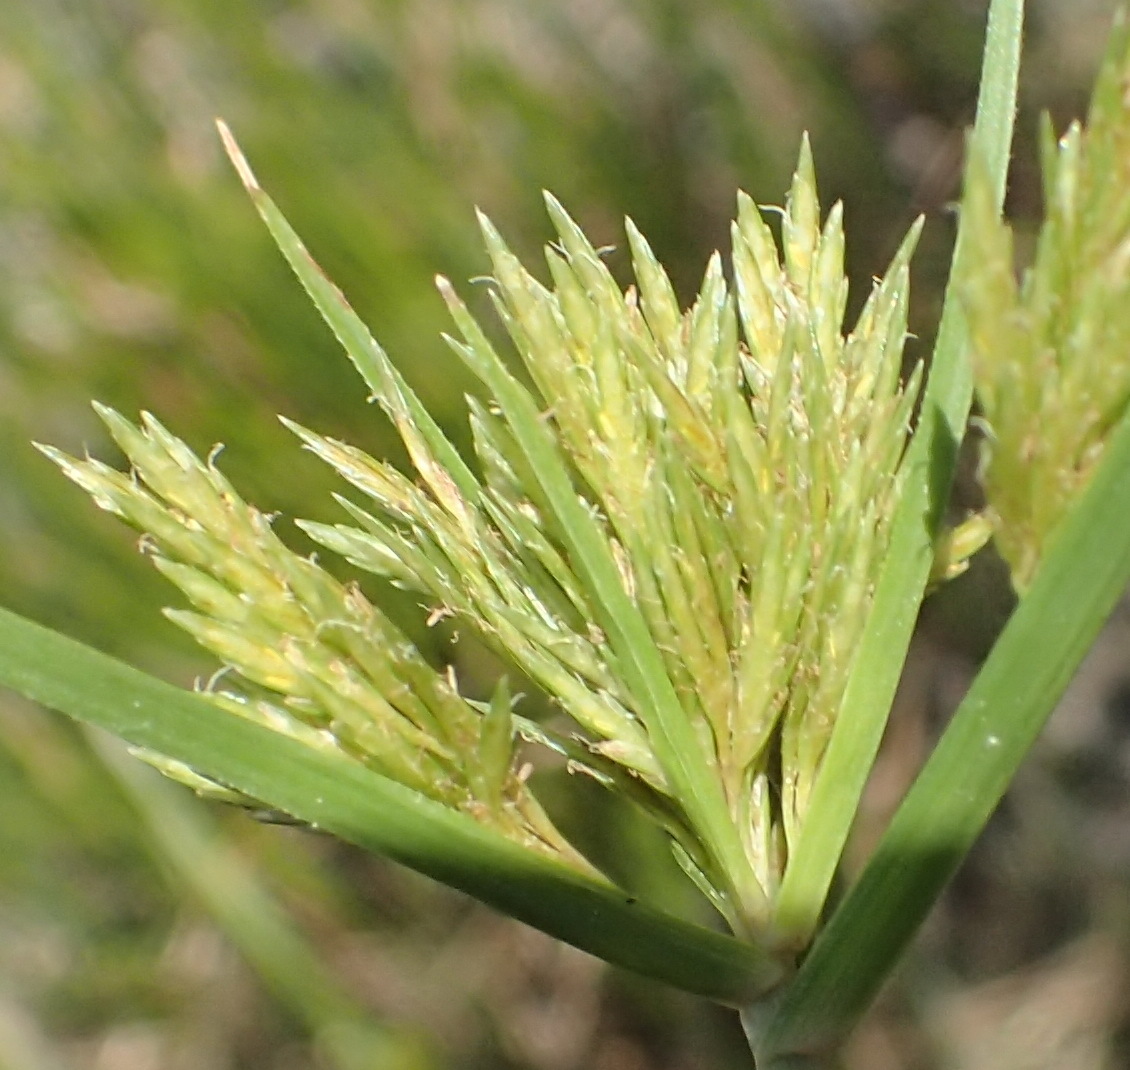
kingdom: Plantae
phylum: Tracheophyta
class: Liliopsida
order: Poales
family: Cyperaceae
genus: Cyperus
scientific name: Cyperus polystachyos
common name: Bunchy flat sedge
